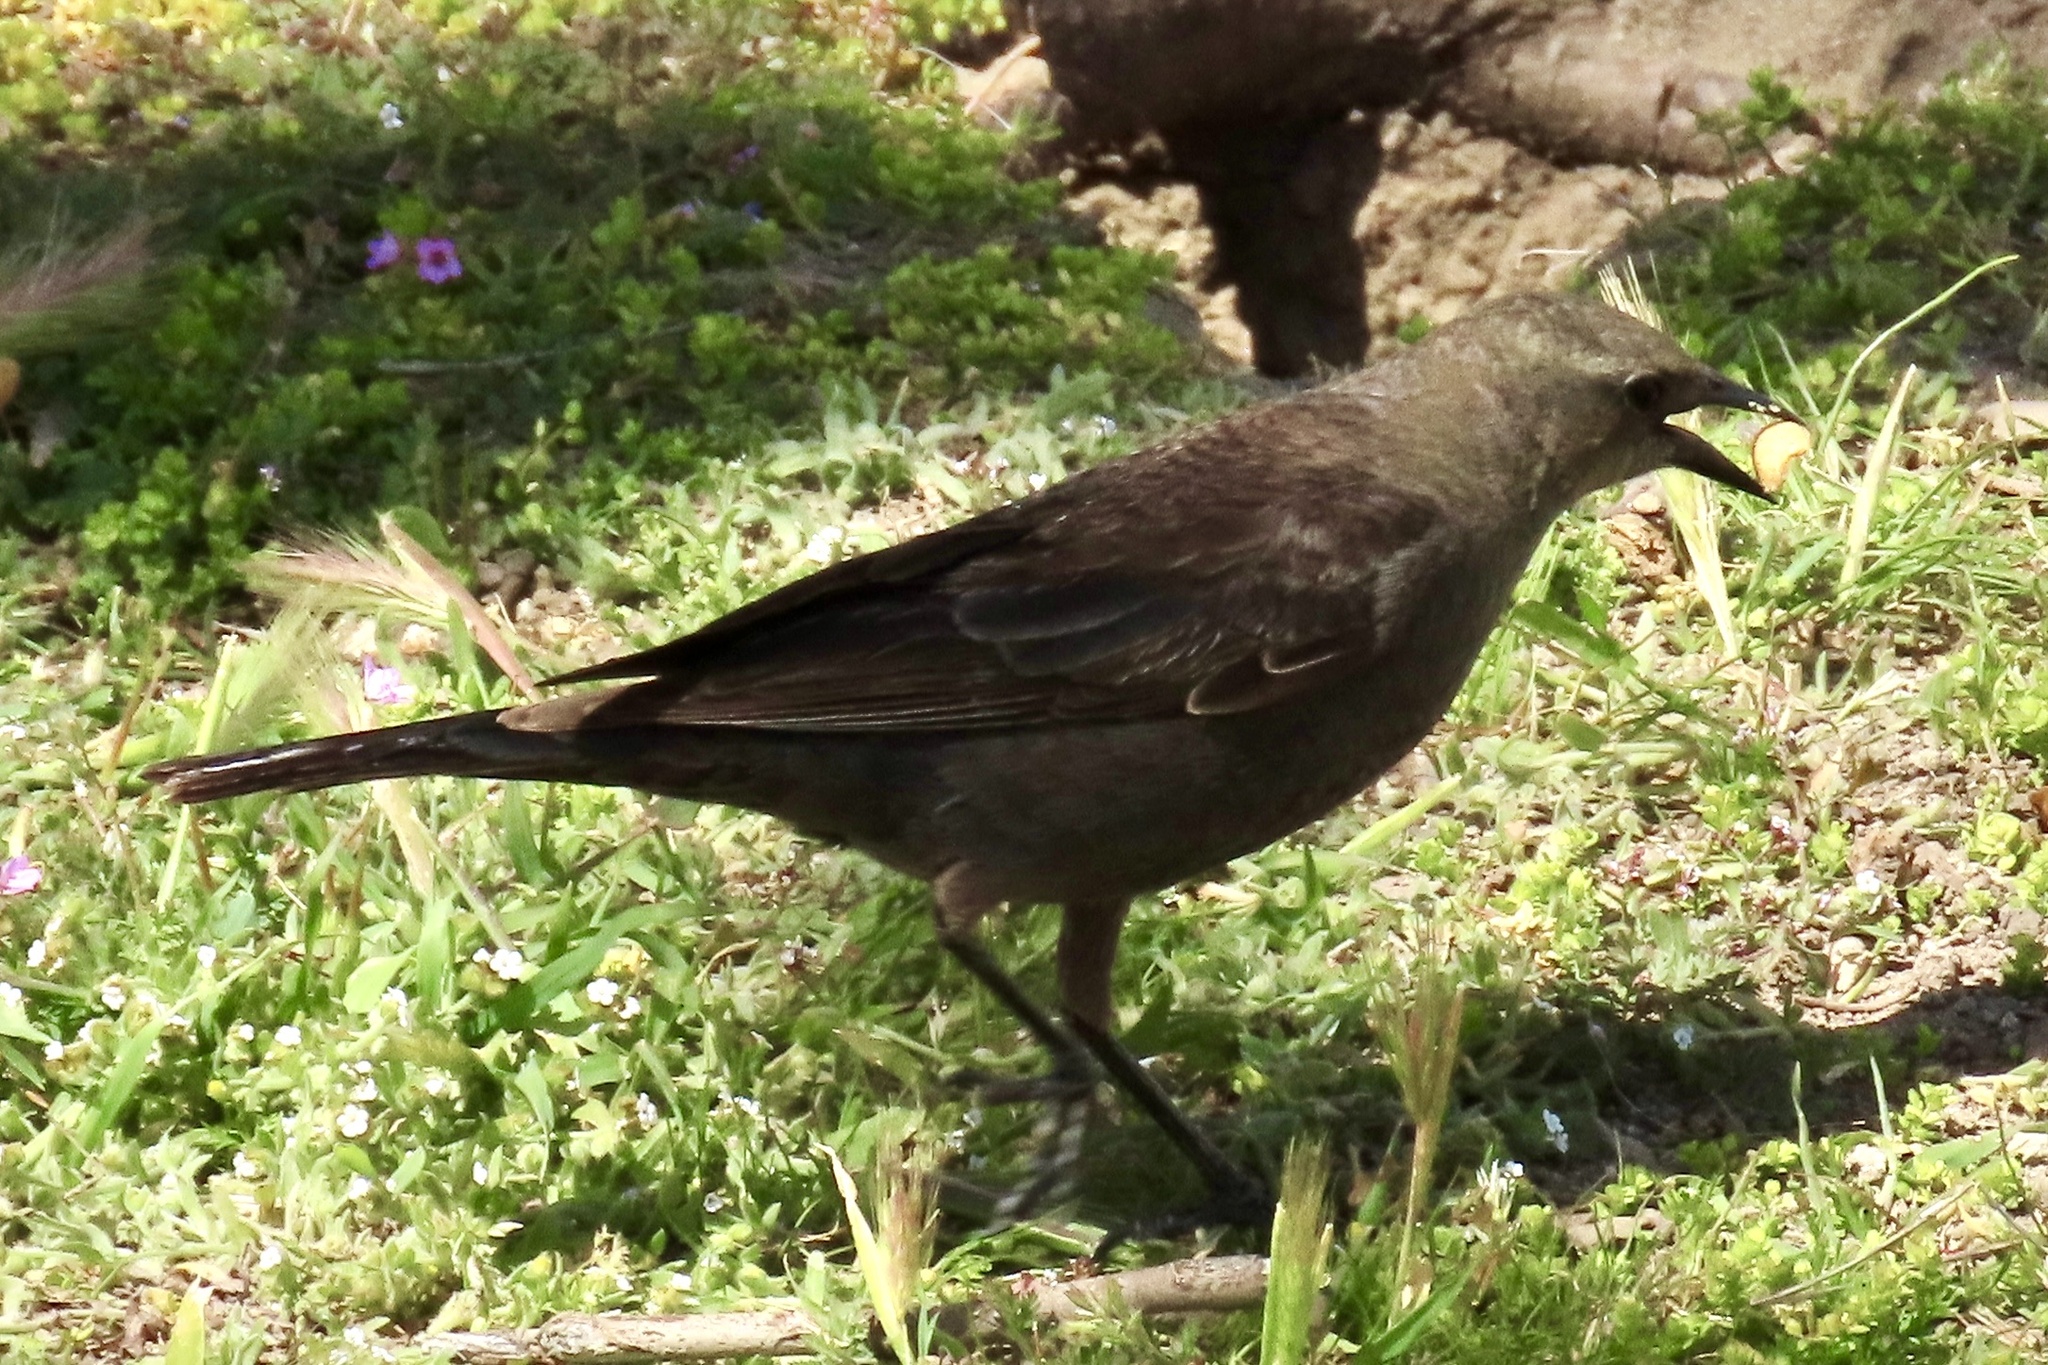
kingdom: Animalia
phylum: Chordata
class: Aves
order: Passeriformes
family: Icteridae
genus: Euphagus
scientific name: Euphagus cyanocephalus
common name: Brewer's blackbird
